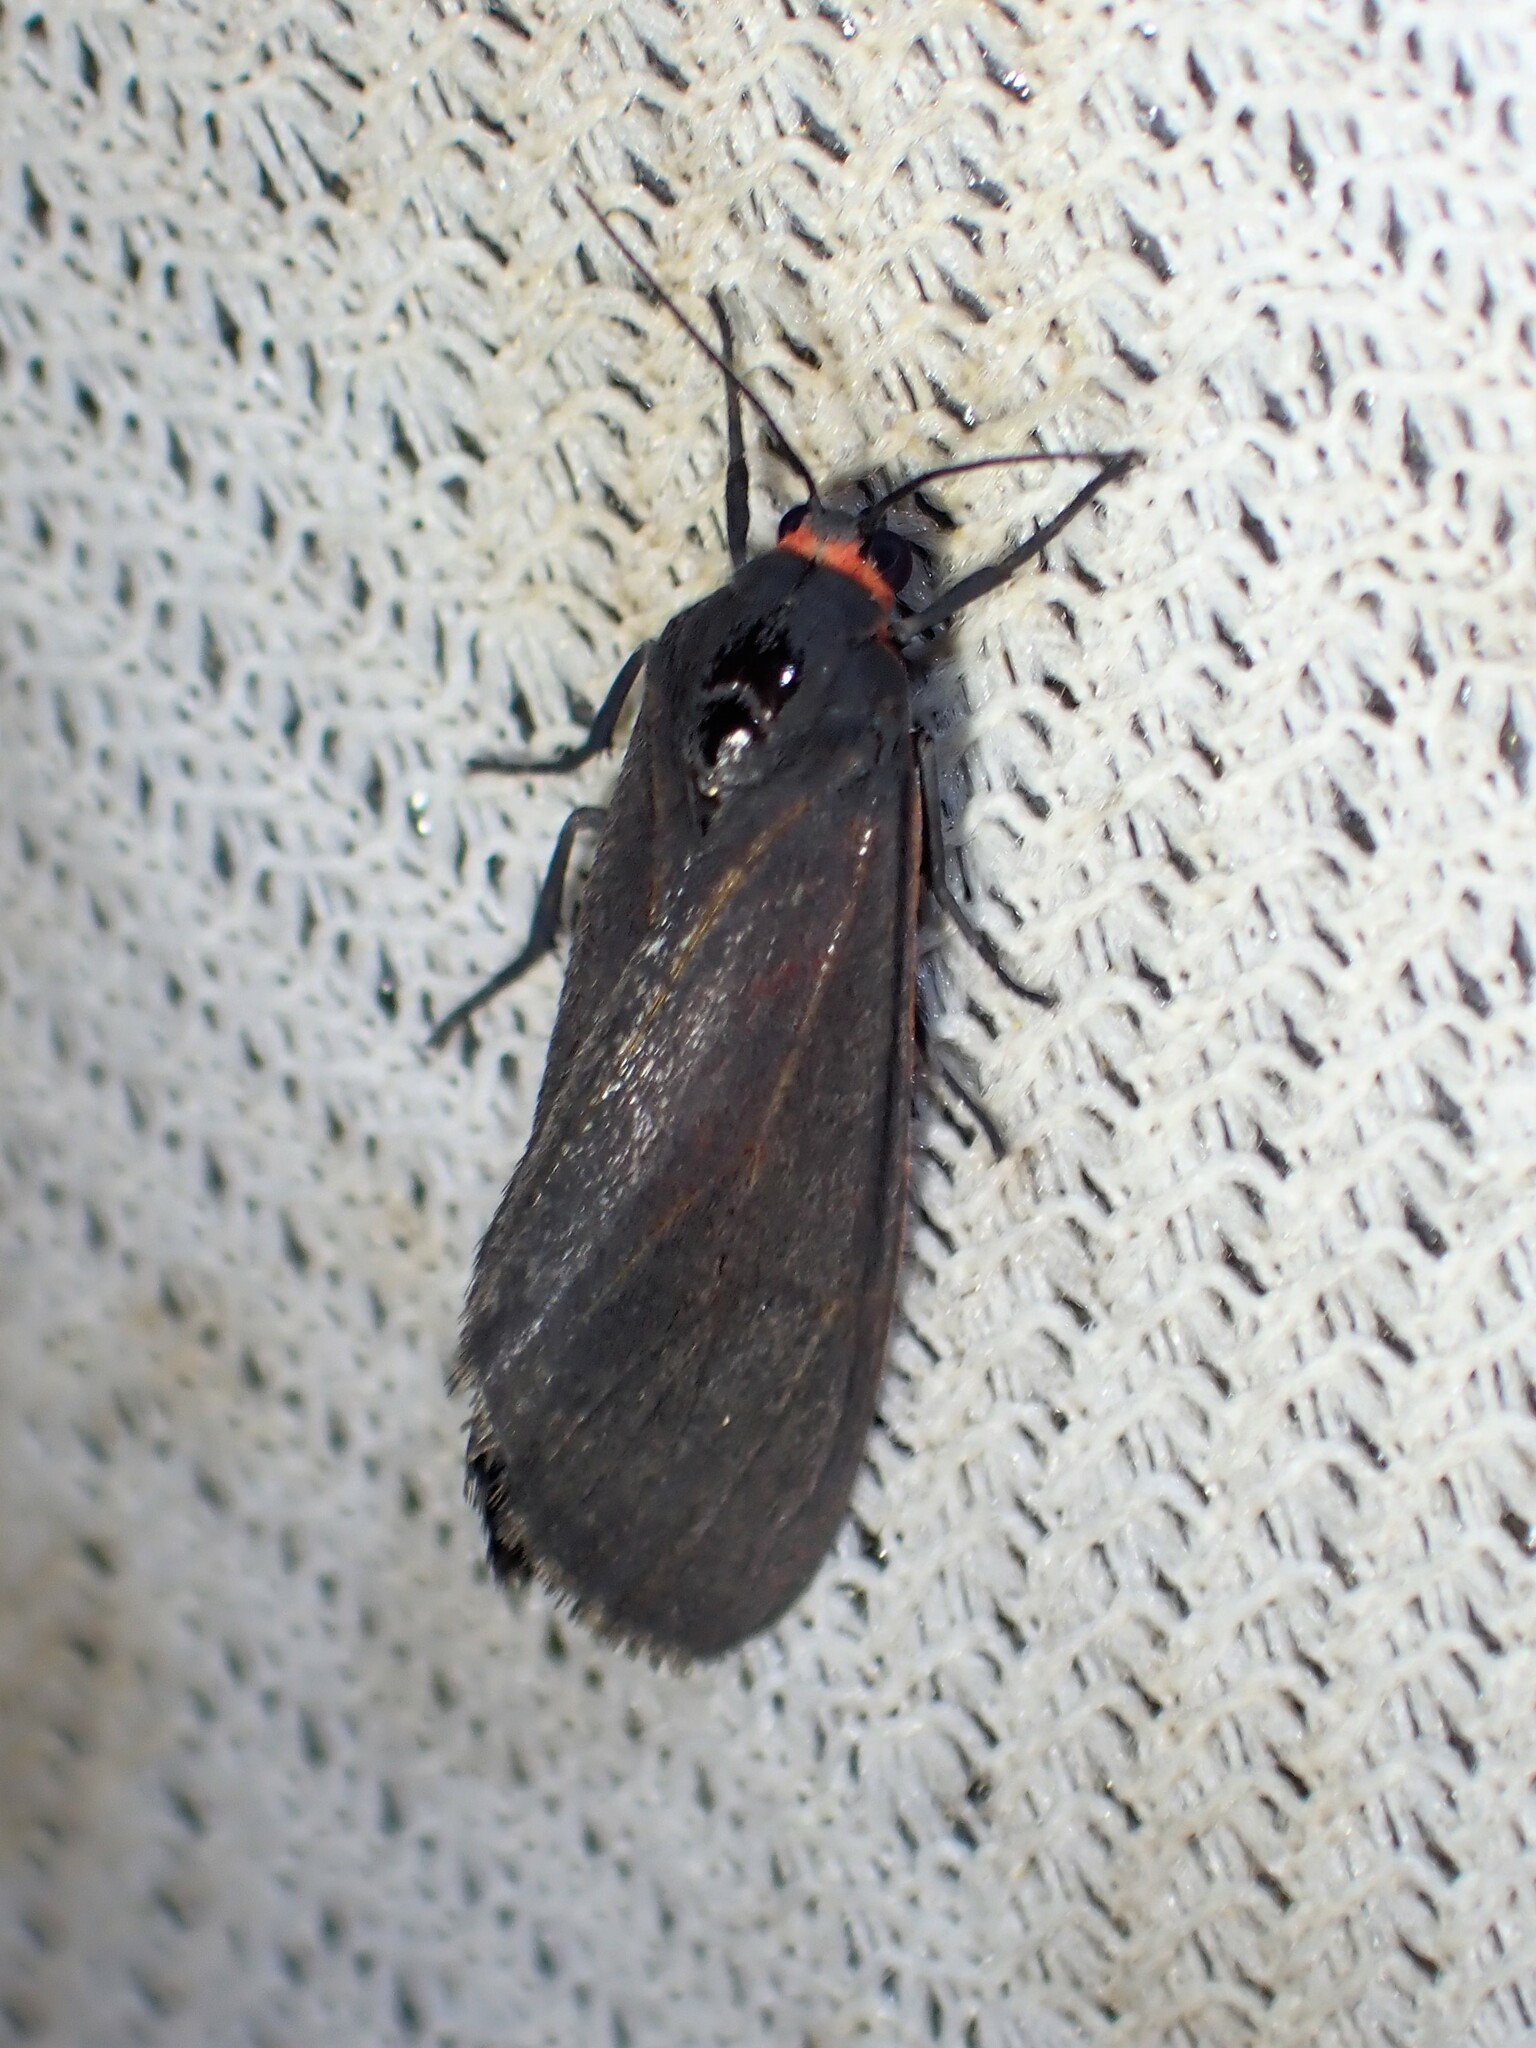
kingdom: Animalia
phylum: Arthropoda
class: Insecta
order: Lepidoptera
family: Erebidae
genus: Virbia
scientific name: Virbia laeta
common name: Joyful holomelina moth
